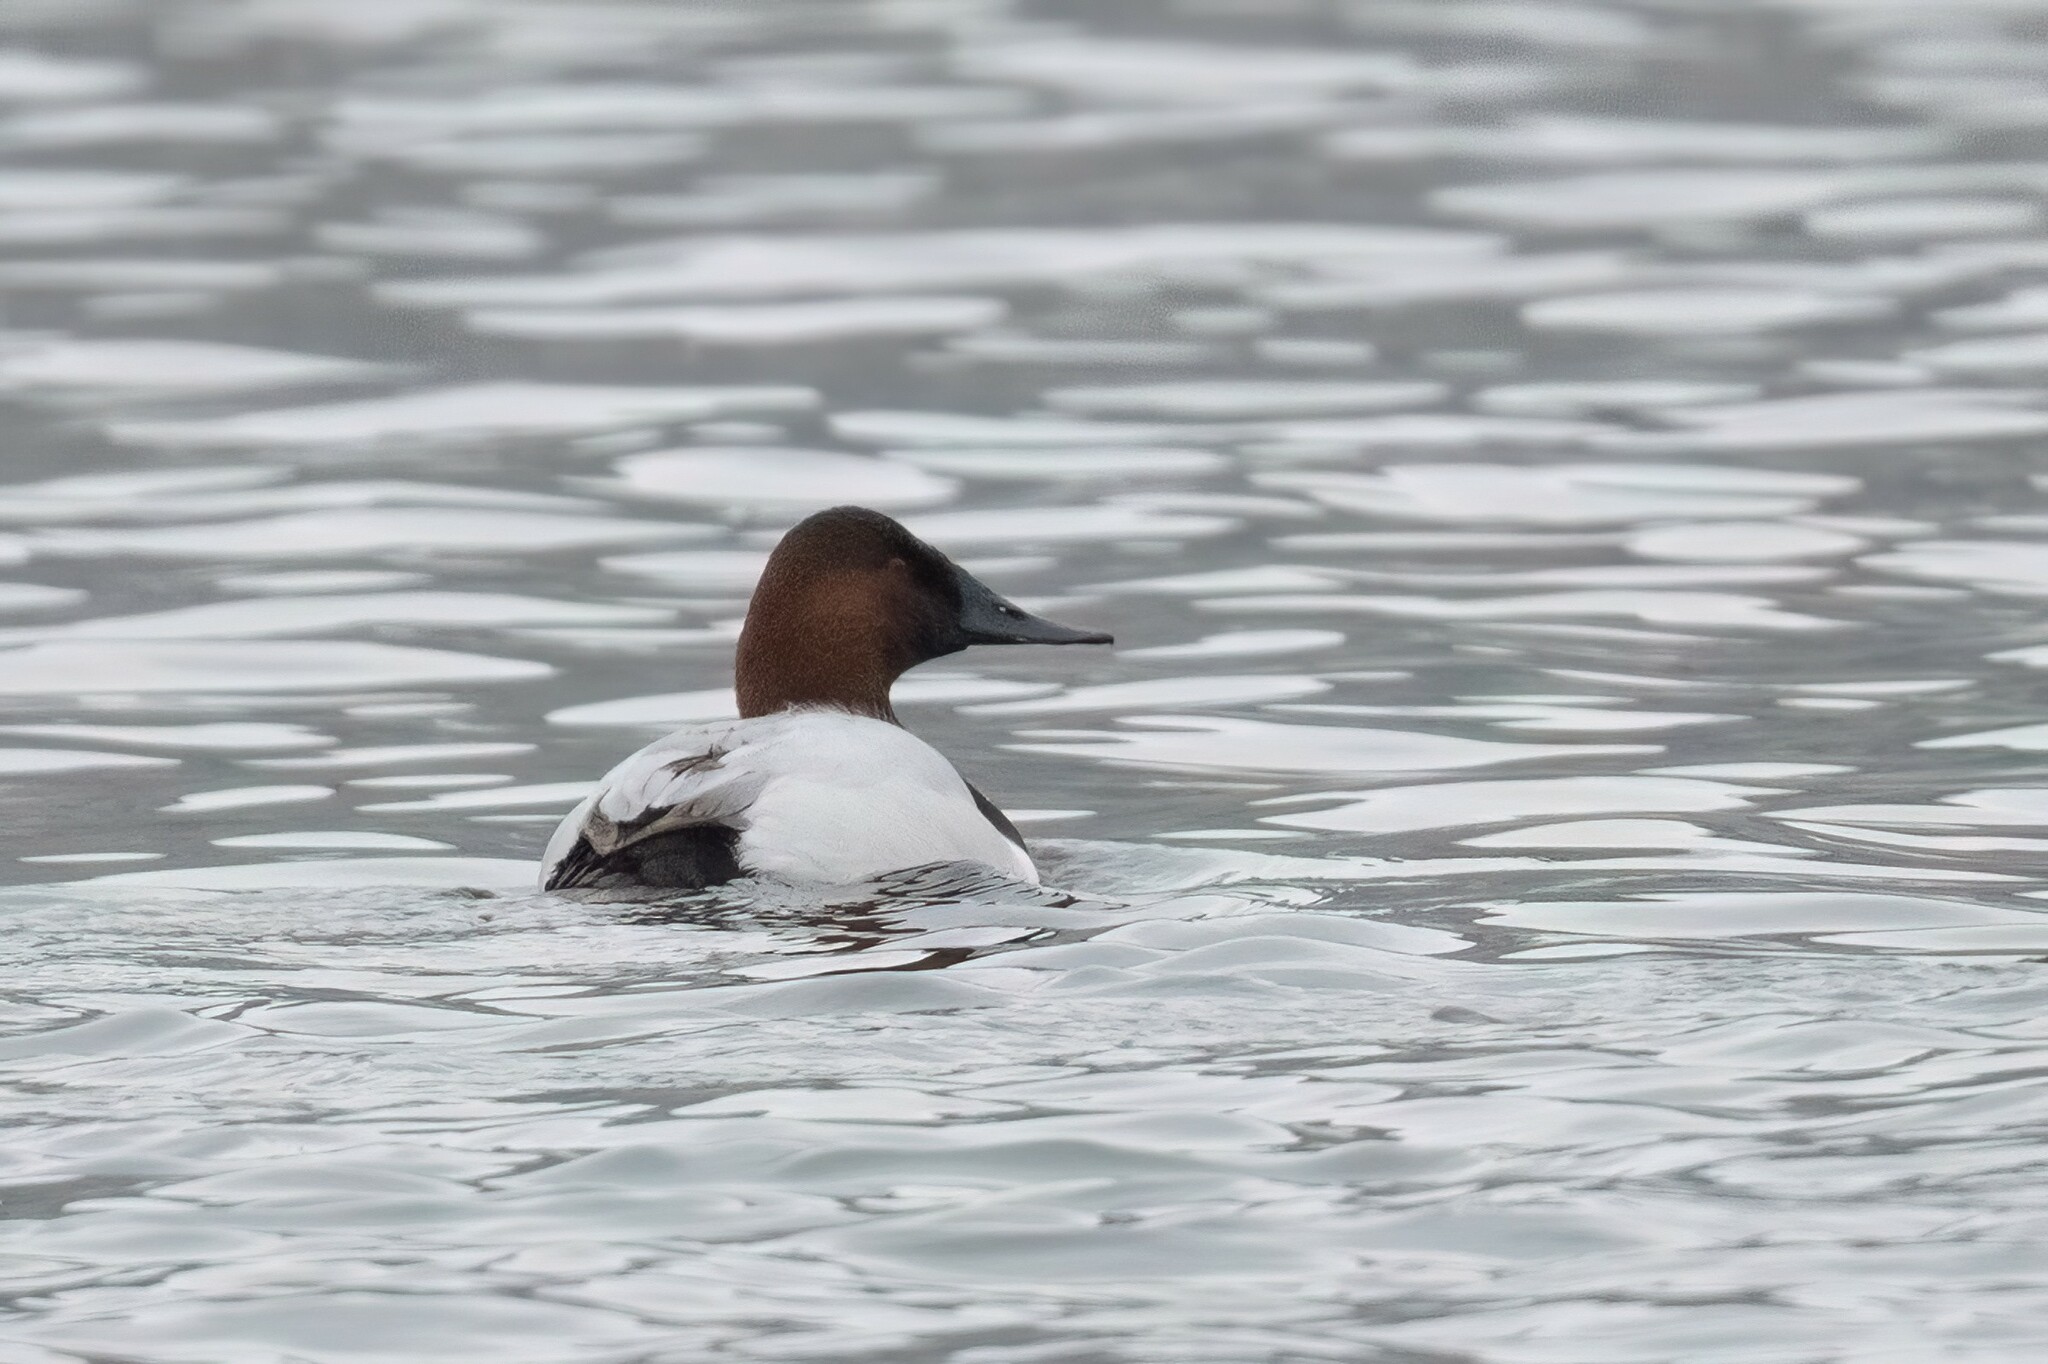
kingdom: Animalia
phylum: Chordata
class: Aves
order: Anseriformes
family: Anatidae
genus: Aythya
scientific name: Aythya valisineria
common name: Canvasback
